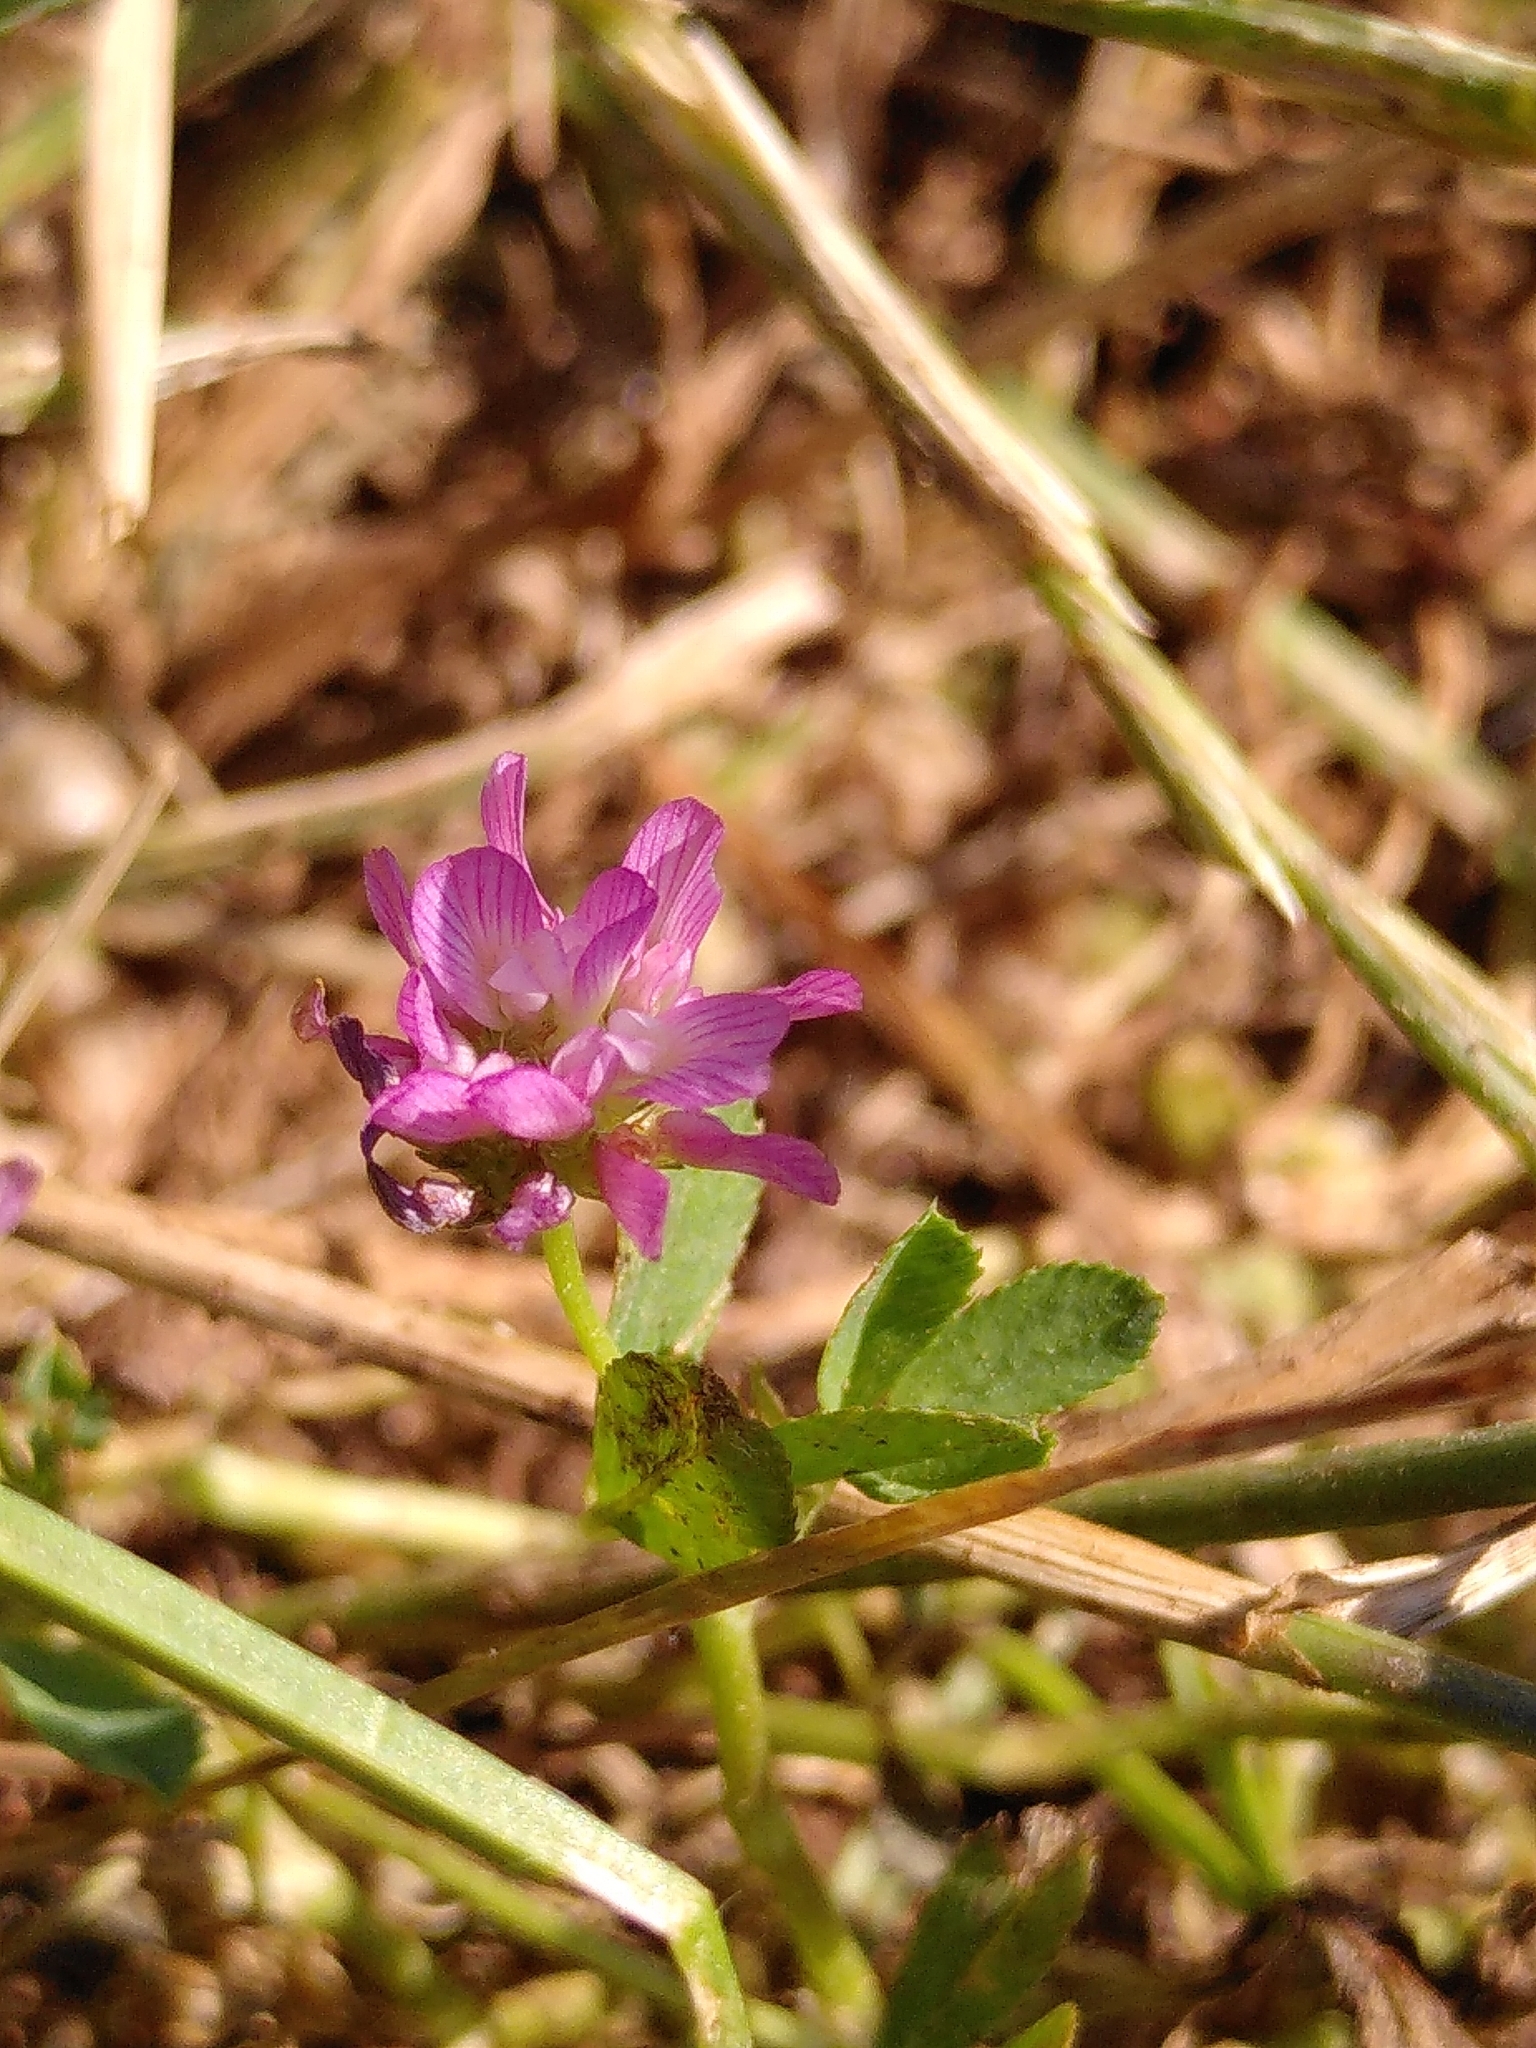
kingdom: Plantae
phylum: Tracheophyta
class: Magnoliopsida
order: Fabales
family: Fabaceae
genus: Trifolium
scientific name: Trifolium resupinatum
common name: Reversed clover
